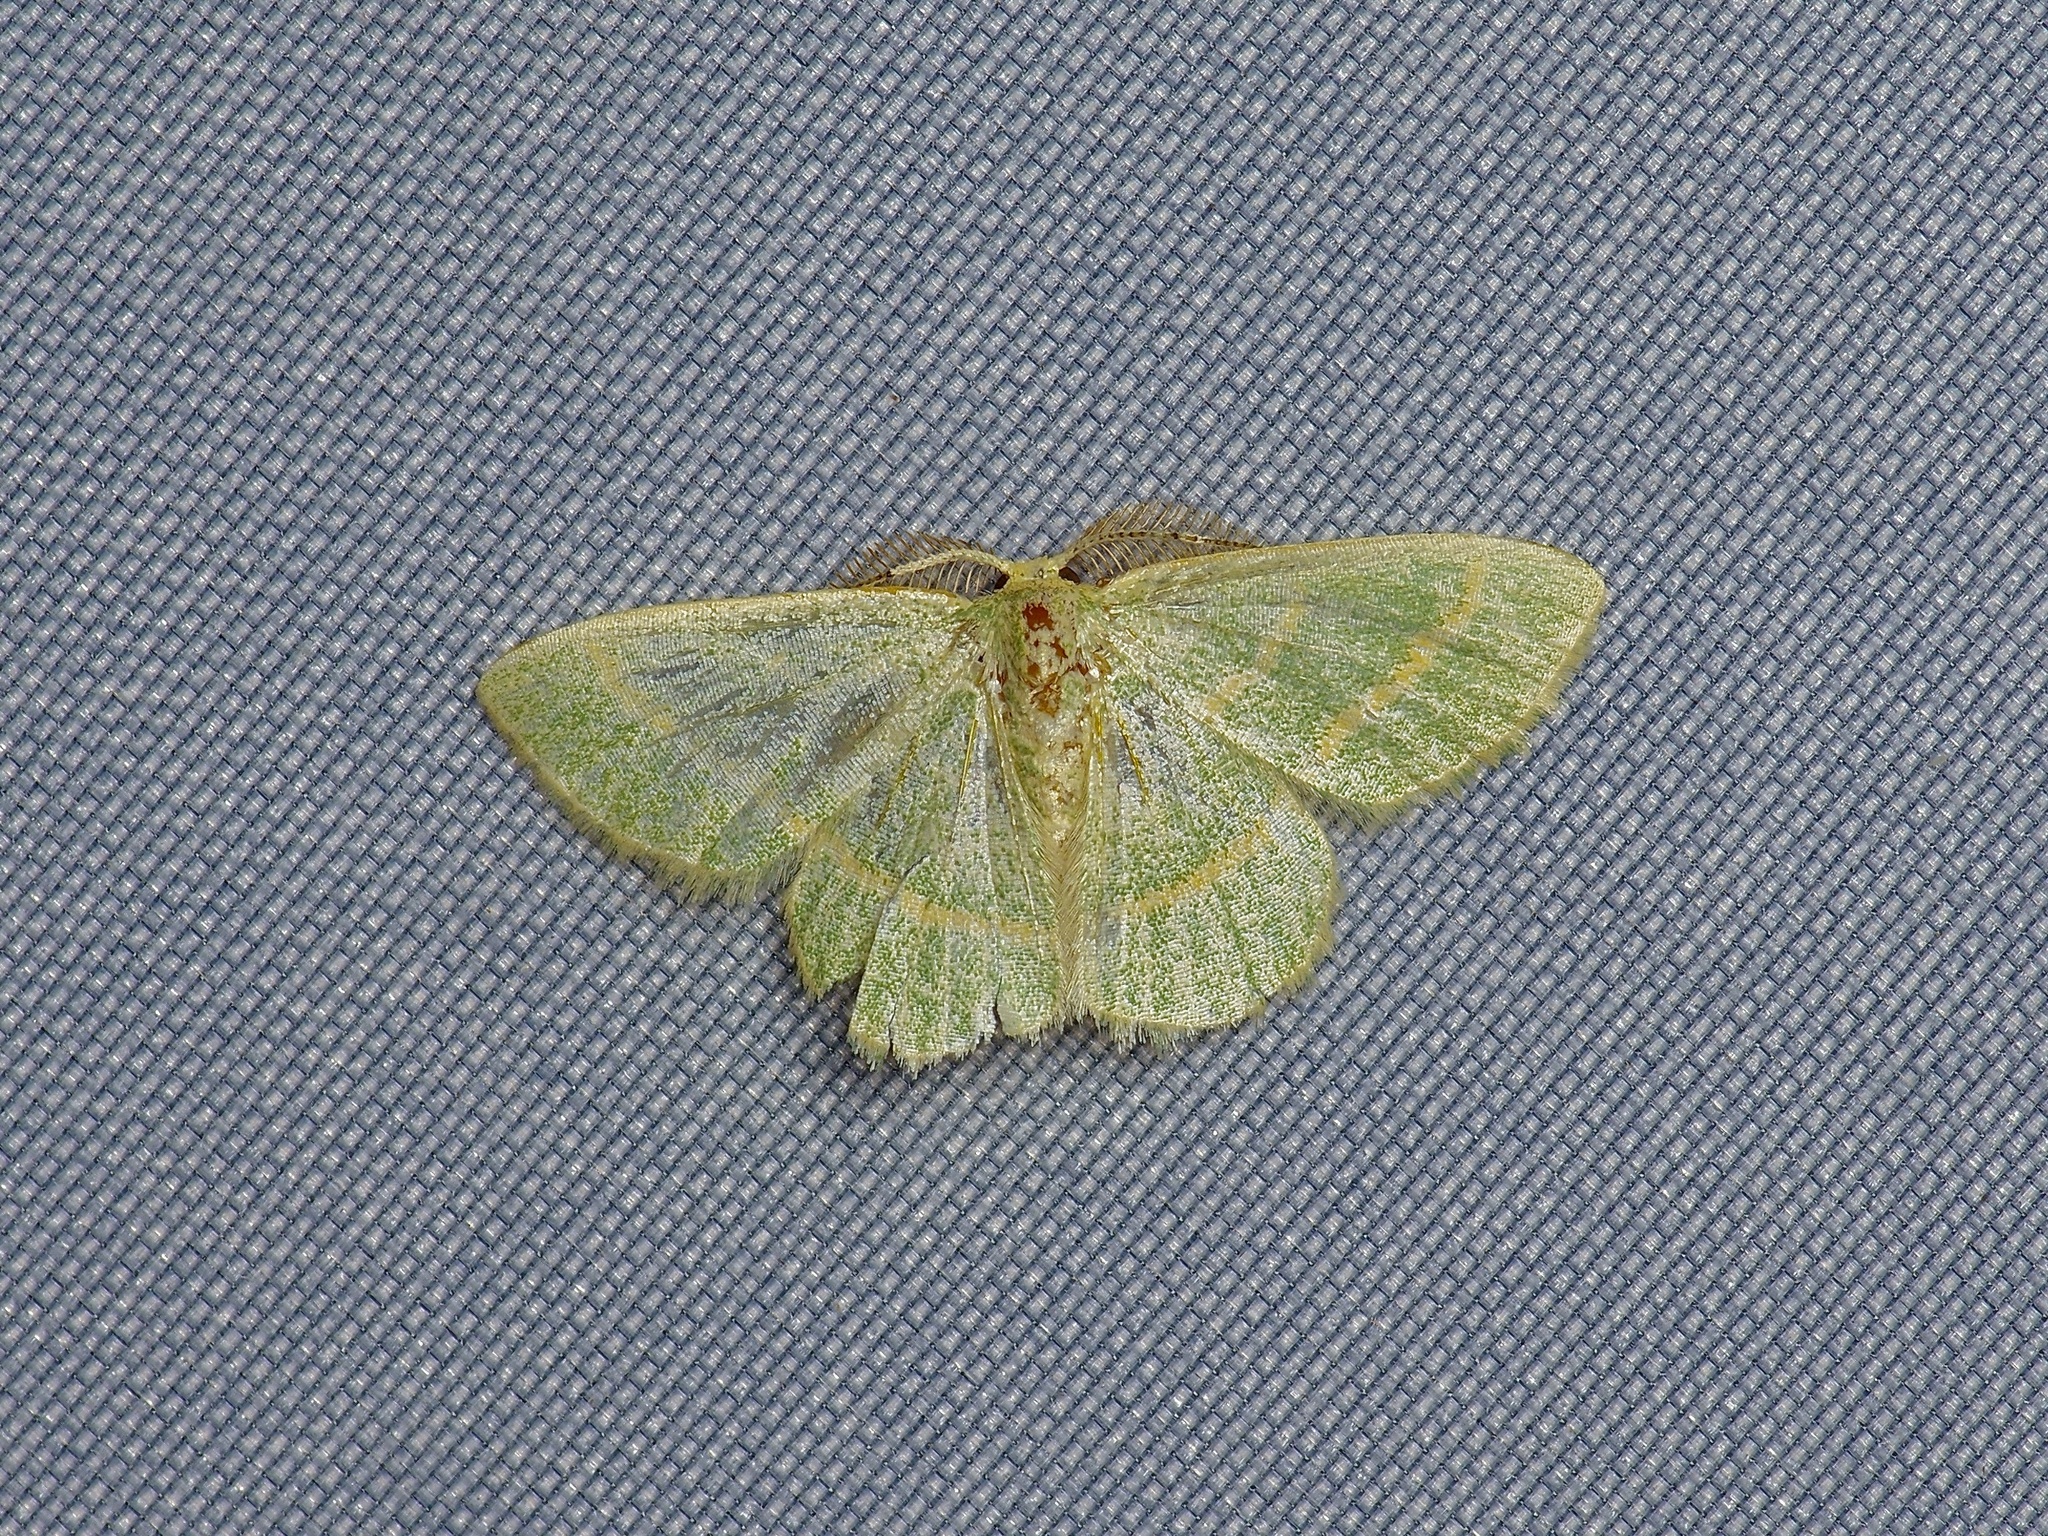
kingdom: Animalia
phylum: Arthropoda
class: Insecta
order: Lepidoptera
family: Geometridae
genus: Chlorochlamys
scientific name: Chlorochlamys chloroleucaria
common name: Blackberry looper
